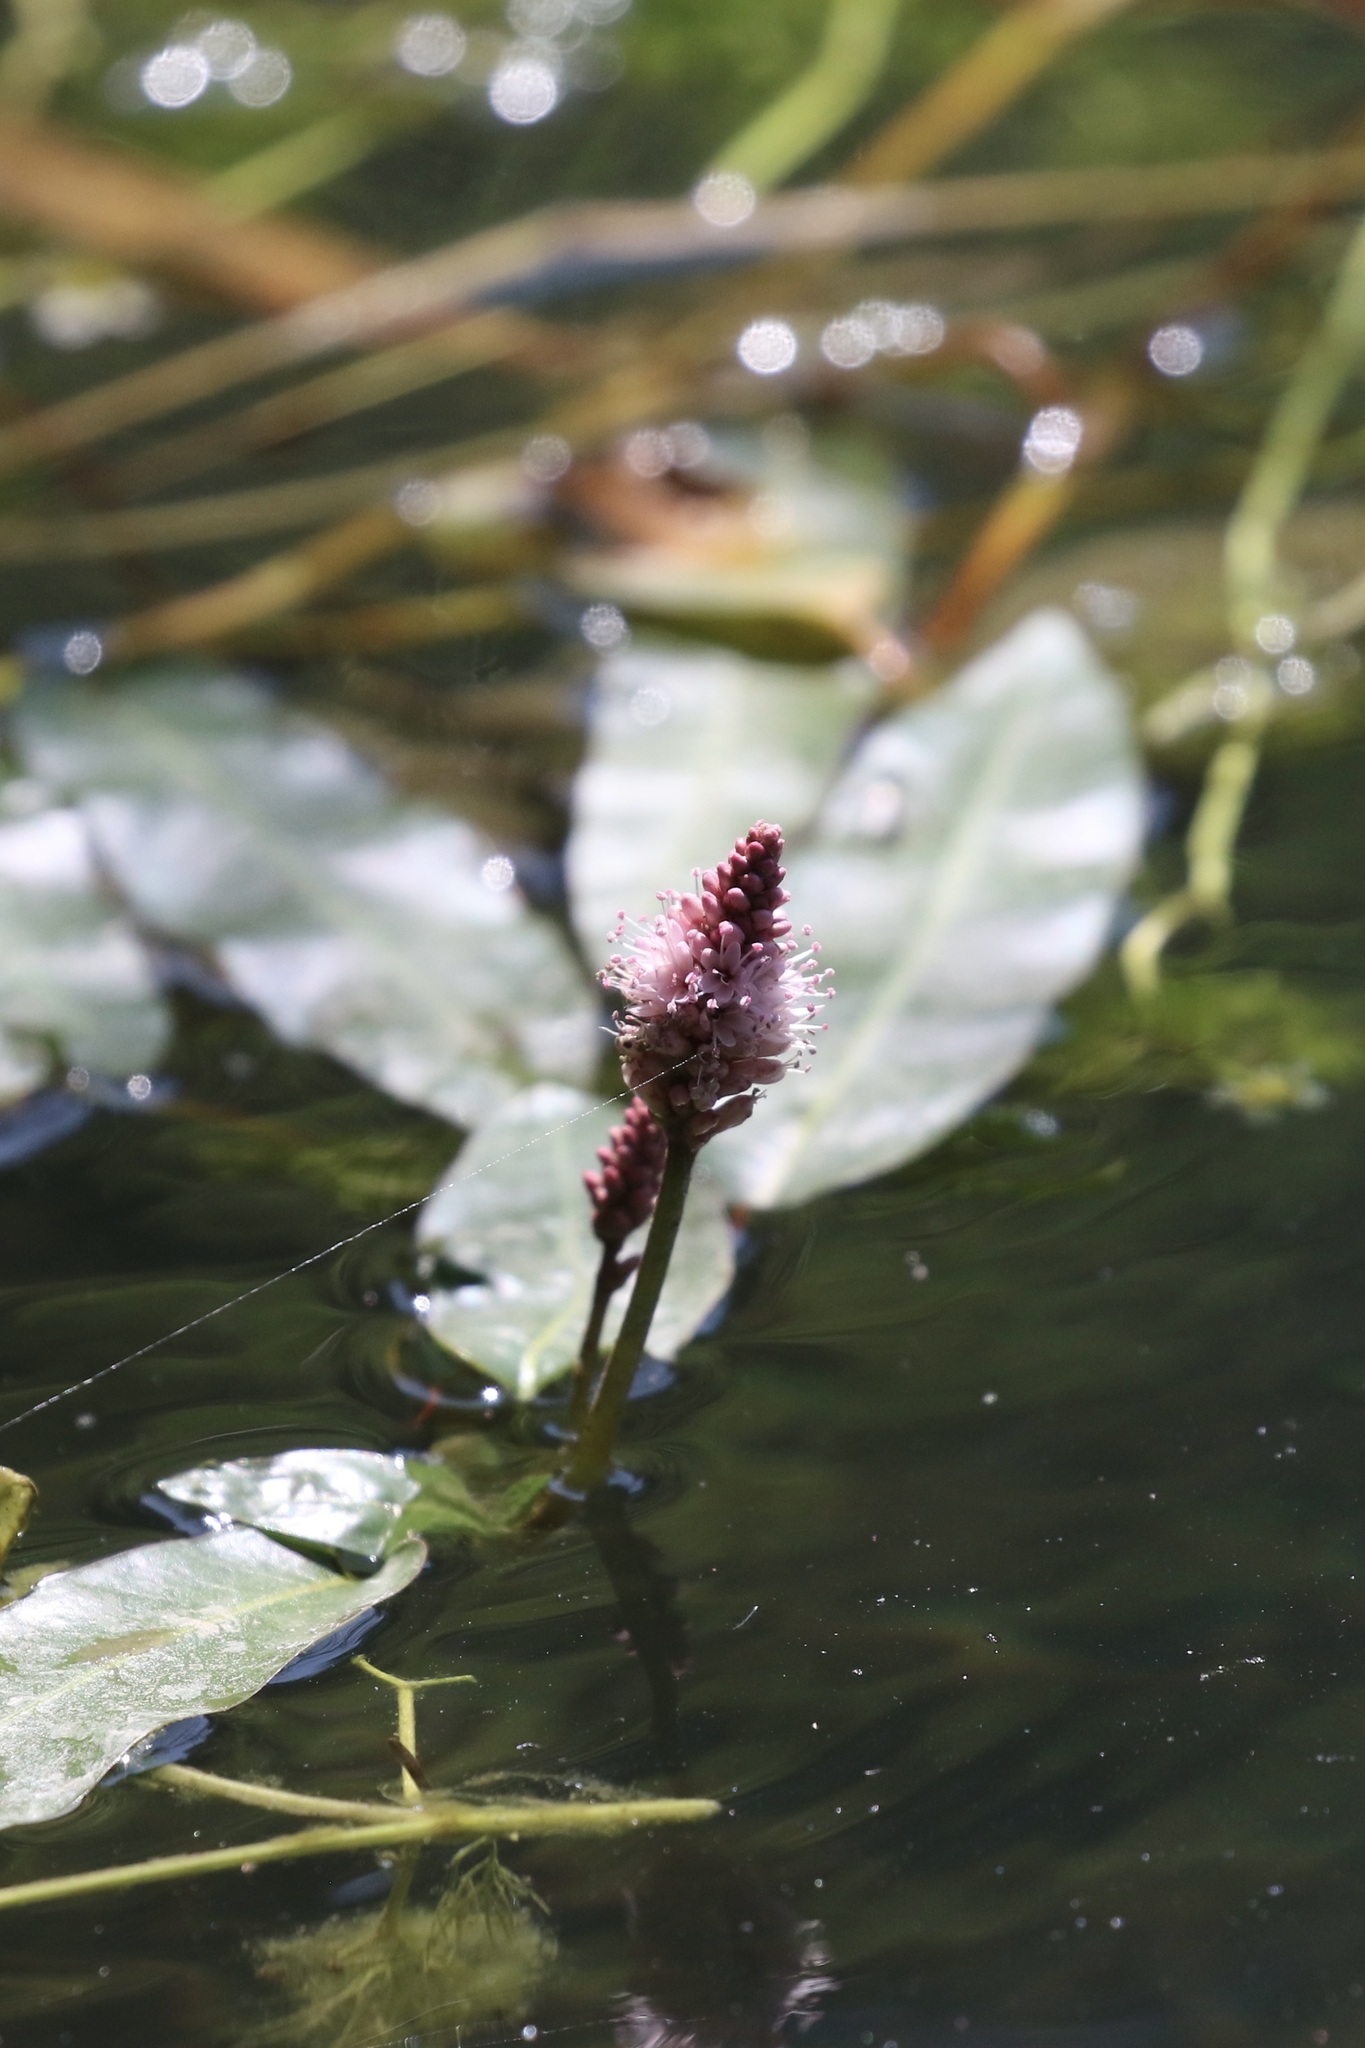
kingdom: Plantae
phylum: Tracheophyta
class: Magnoliopsida
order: Caryophyllales
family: Polygonaceae
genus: Persicaria
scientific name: Persicaria amphibia
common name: Amphibious bistort
